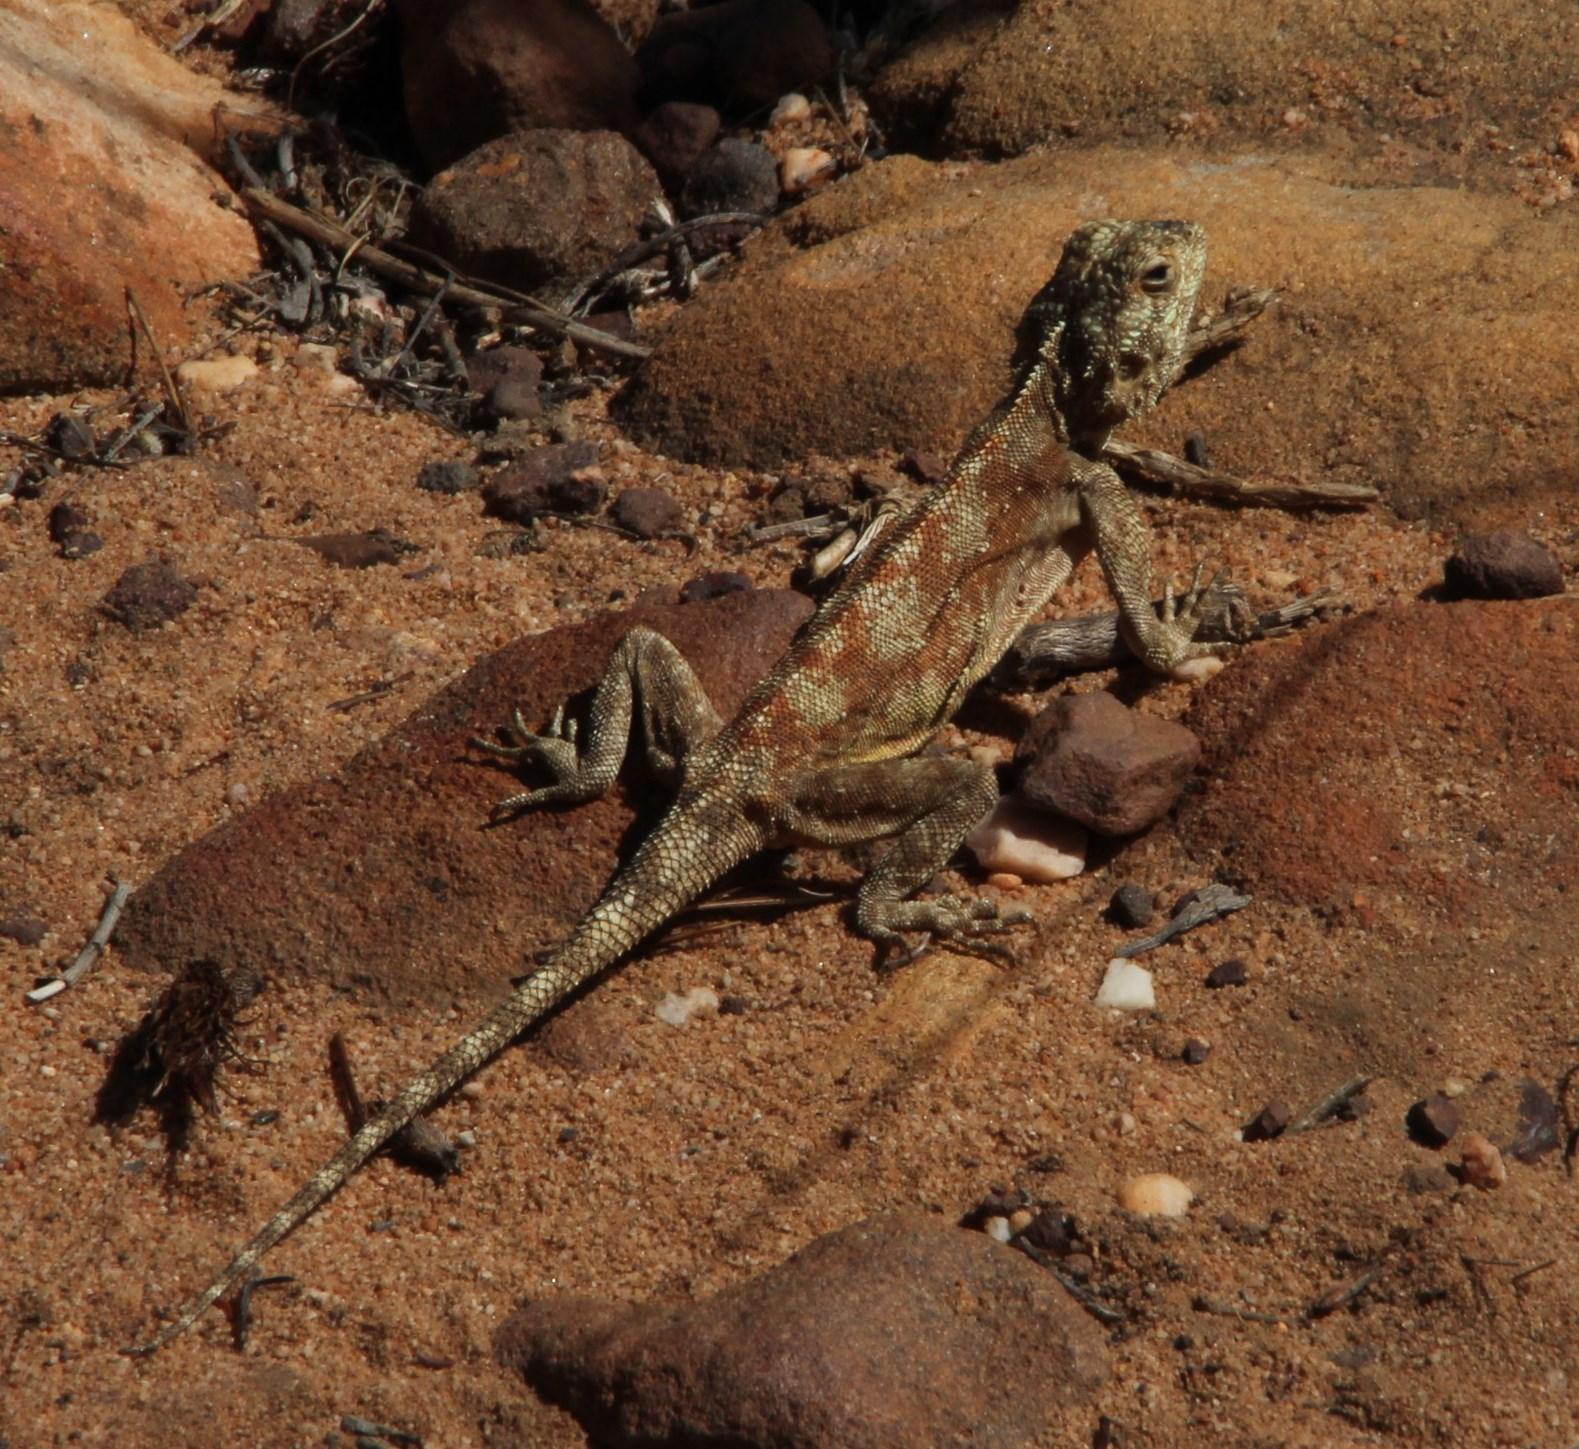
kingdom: Animalia
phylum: Chordata
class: Squamata
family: Agamidae
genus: Agama
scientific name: Agama atra
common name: Southern african rock agama
